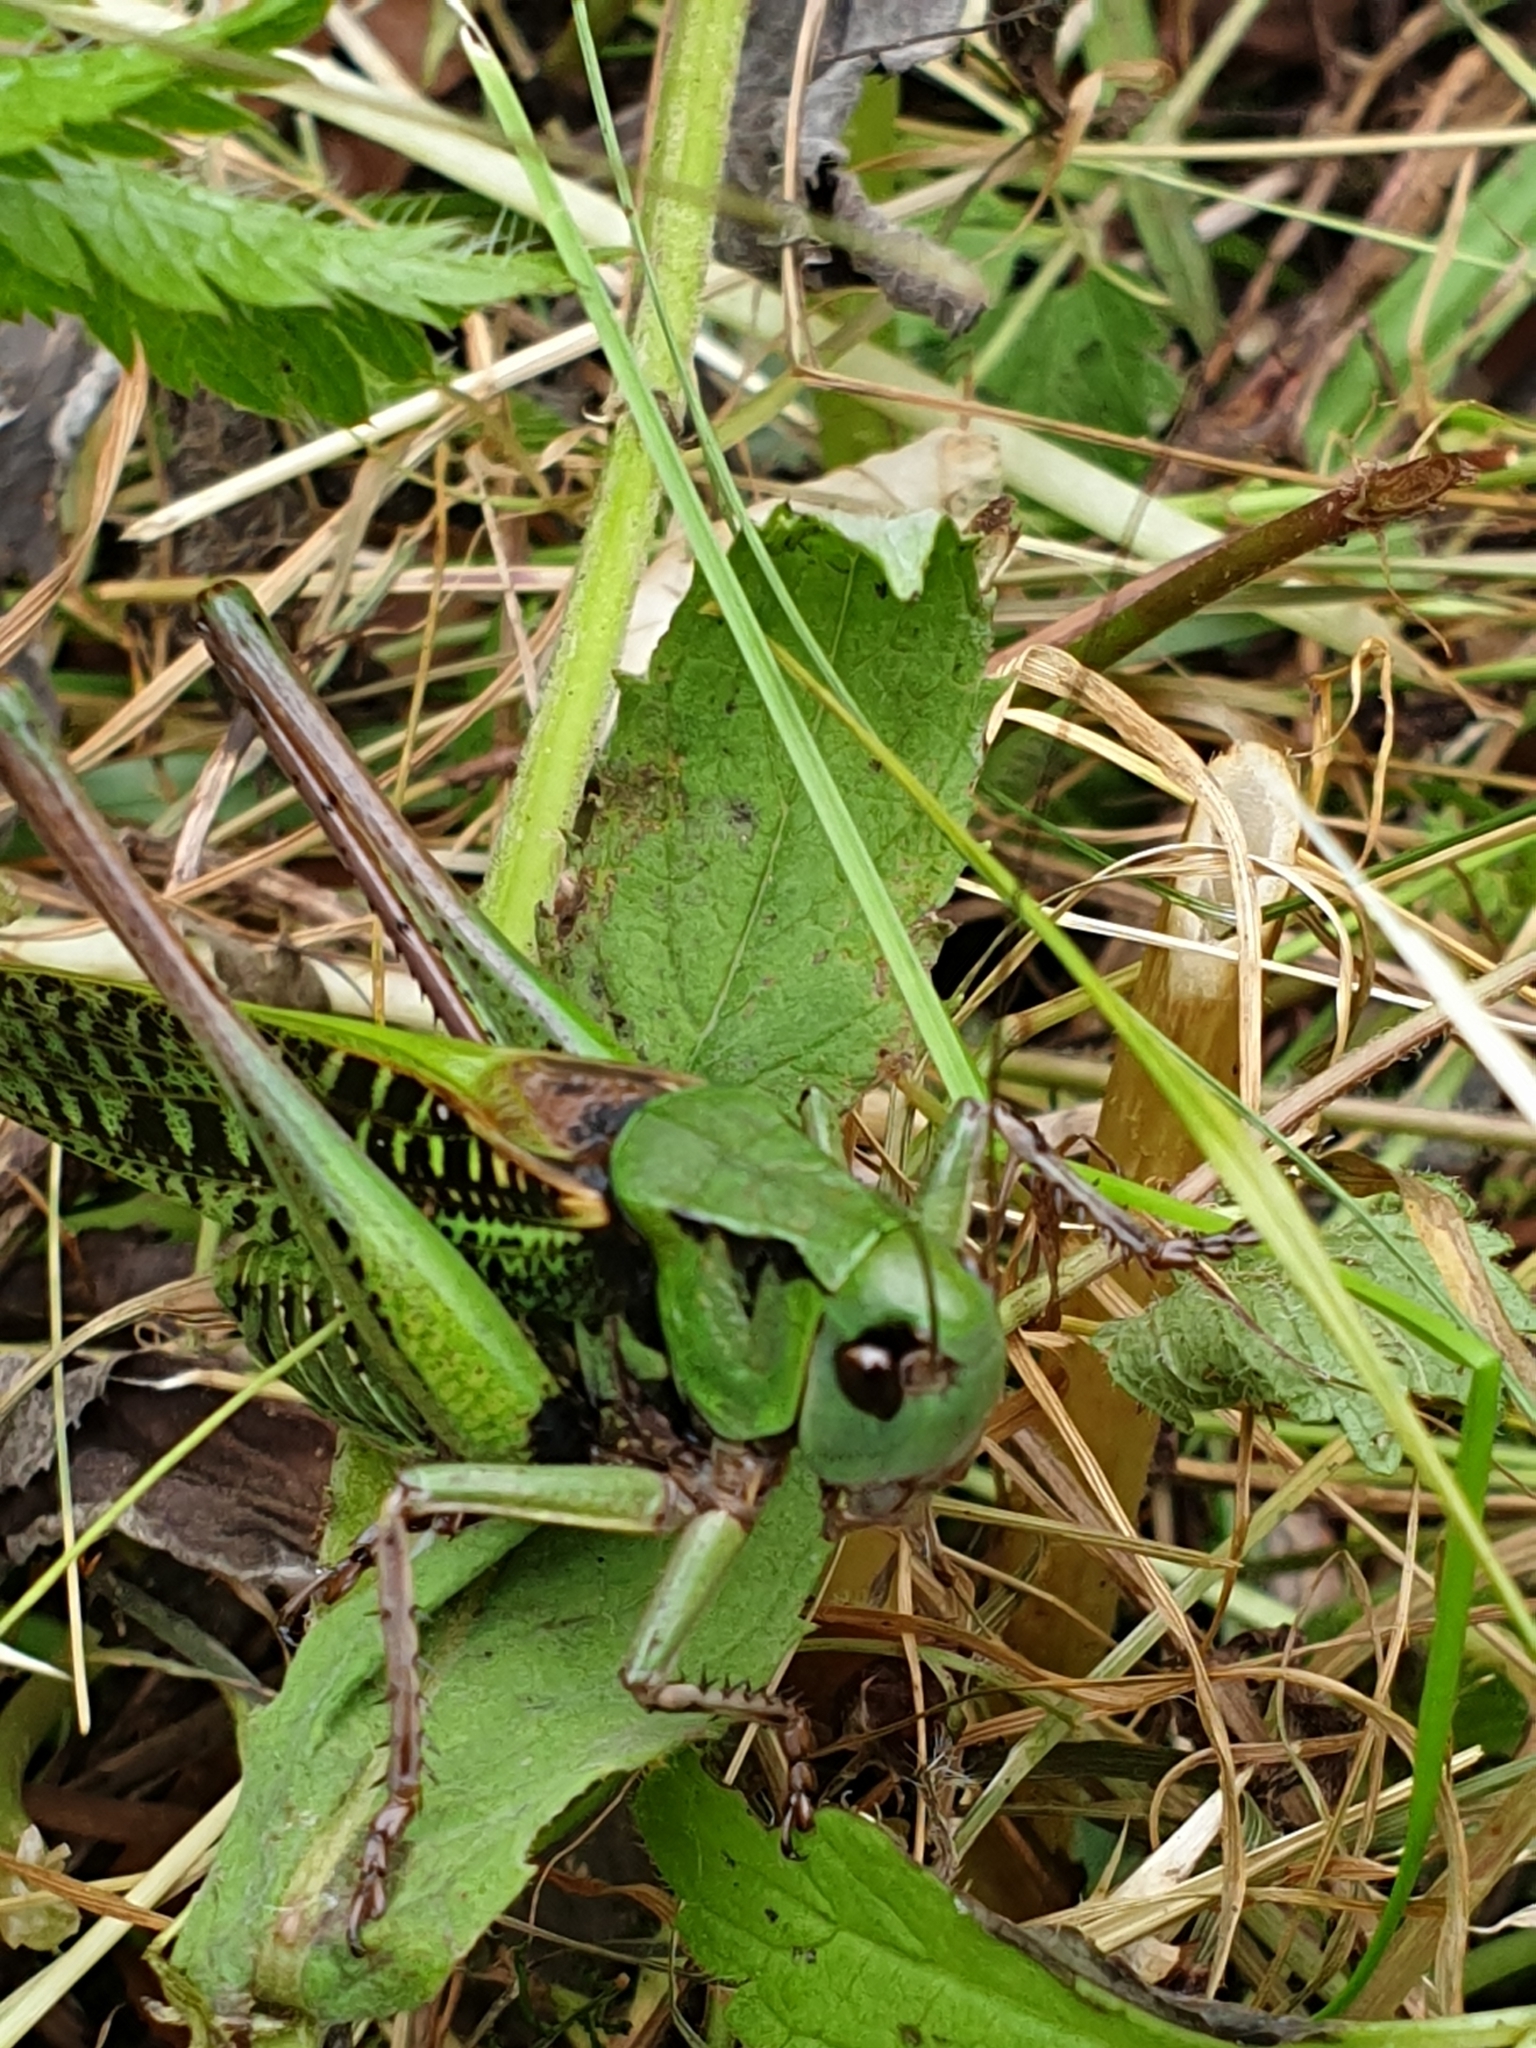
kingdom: Animalia
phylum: Arthropoda
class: Insecta
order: Orthoptera
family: Tettigoniidae
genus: Decticus
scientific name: Decticus verrucivorus
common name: Wart-biter
